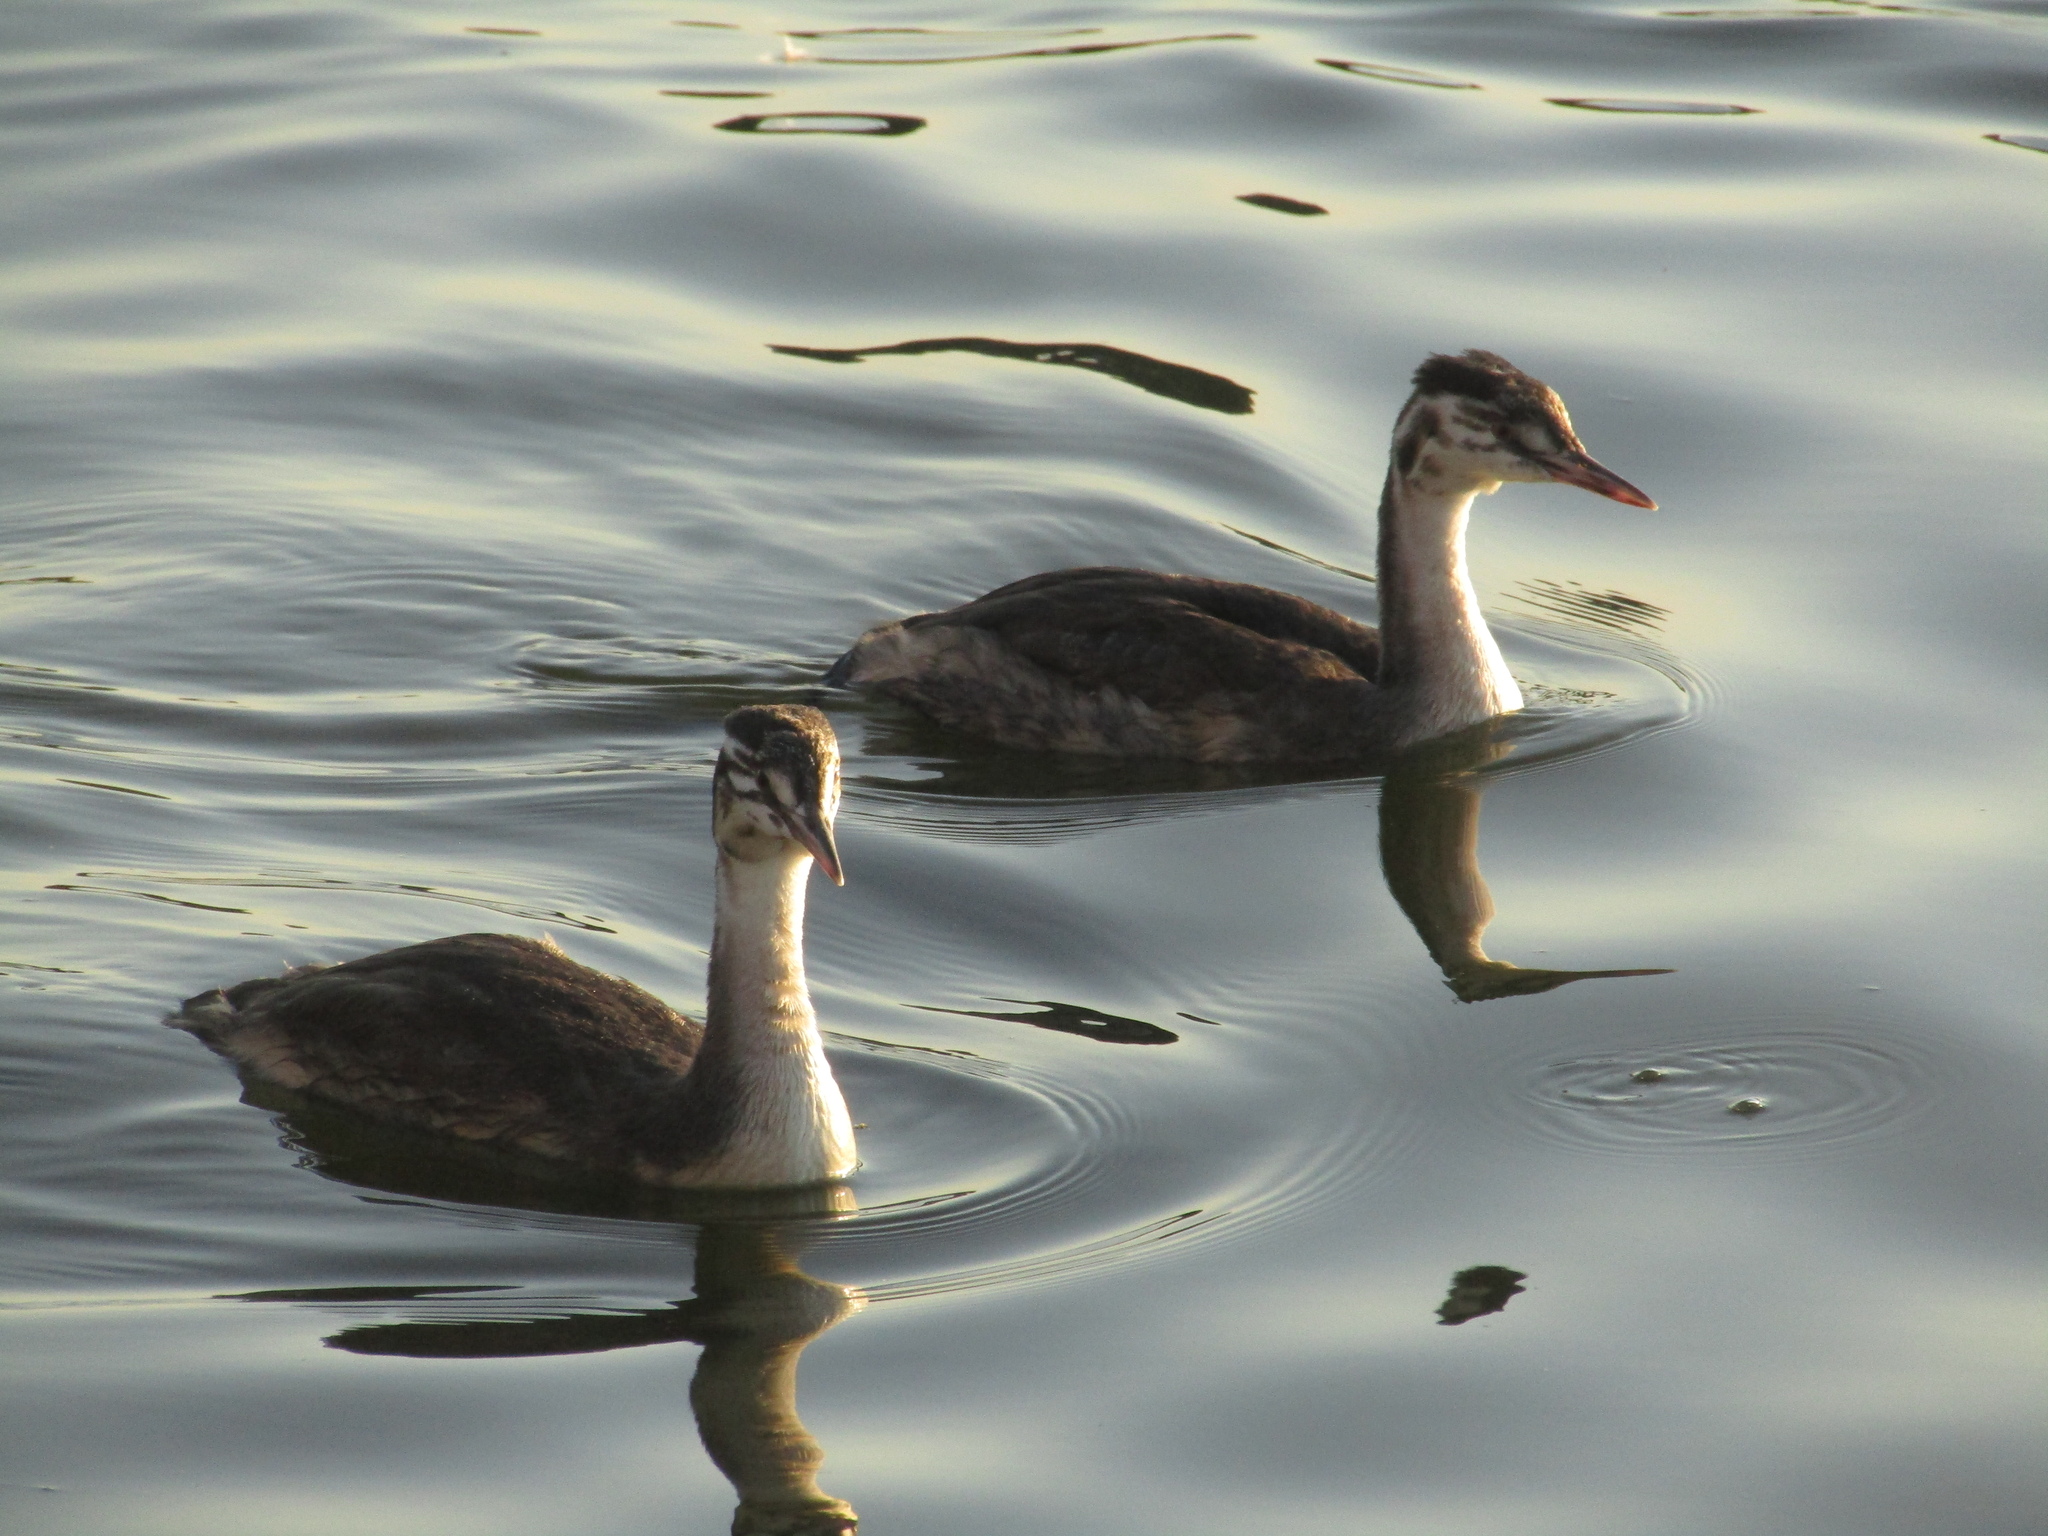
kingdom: Animalia
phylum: Chordata
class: Aves
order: Podicipediformes
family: Podicipedidae
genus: Podiceps
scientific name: Podiceps cristatus
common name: Great crested grebe
